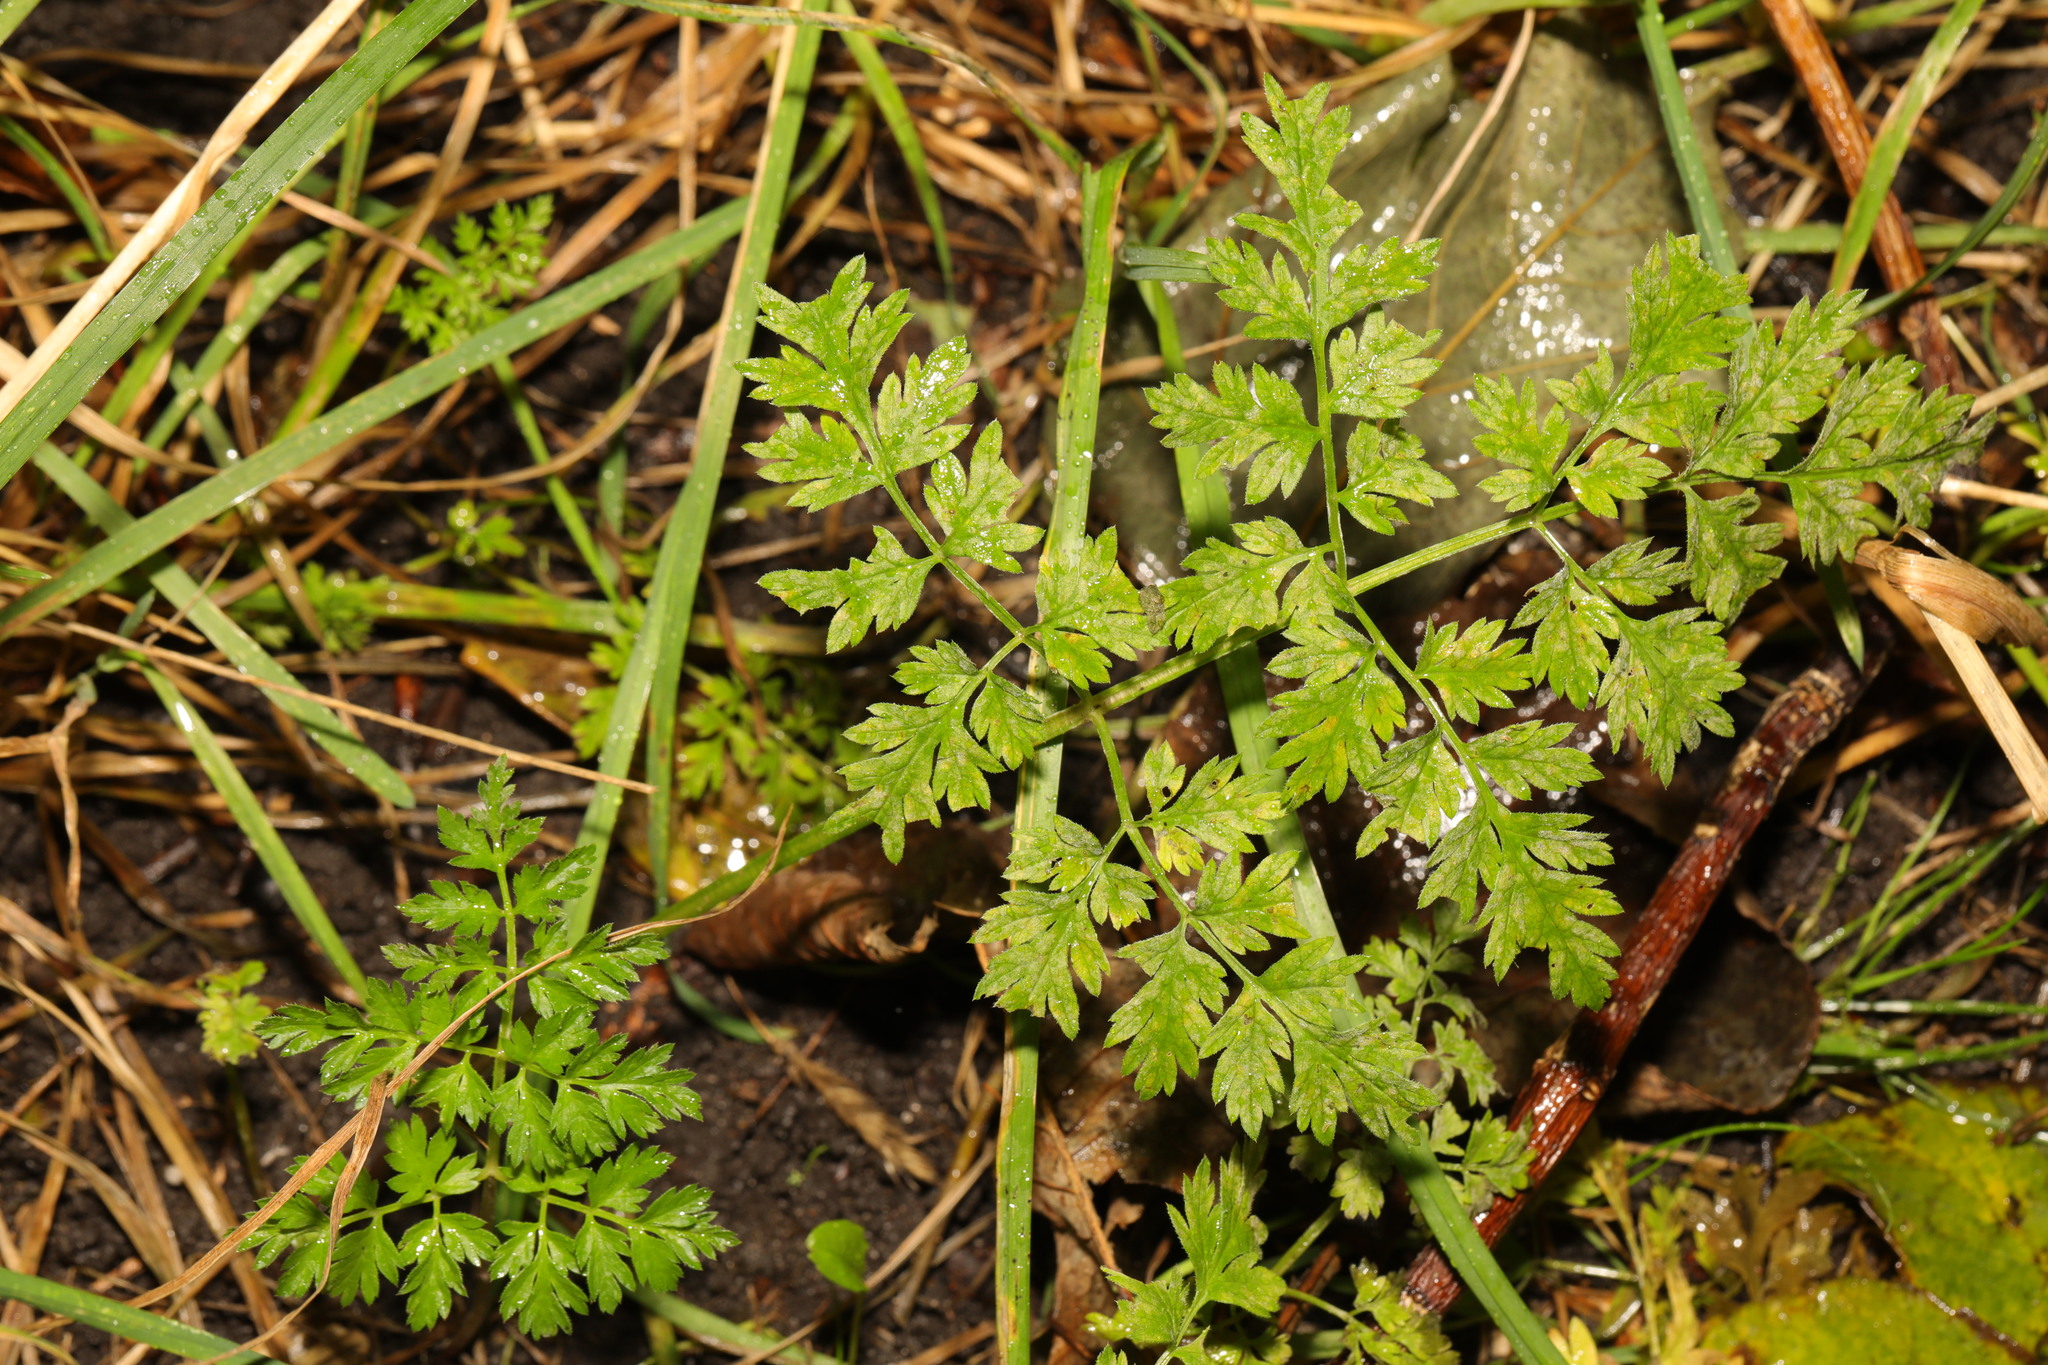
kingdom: Plantae
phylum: Tracheophyta
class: Magnoliopsida
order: Apiales
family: Apiaceae
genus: Anthriscus
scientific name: Anthriscus sylvestris
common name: Cow parsley
